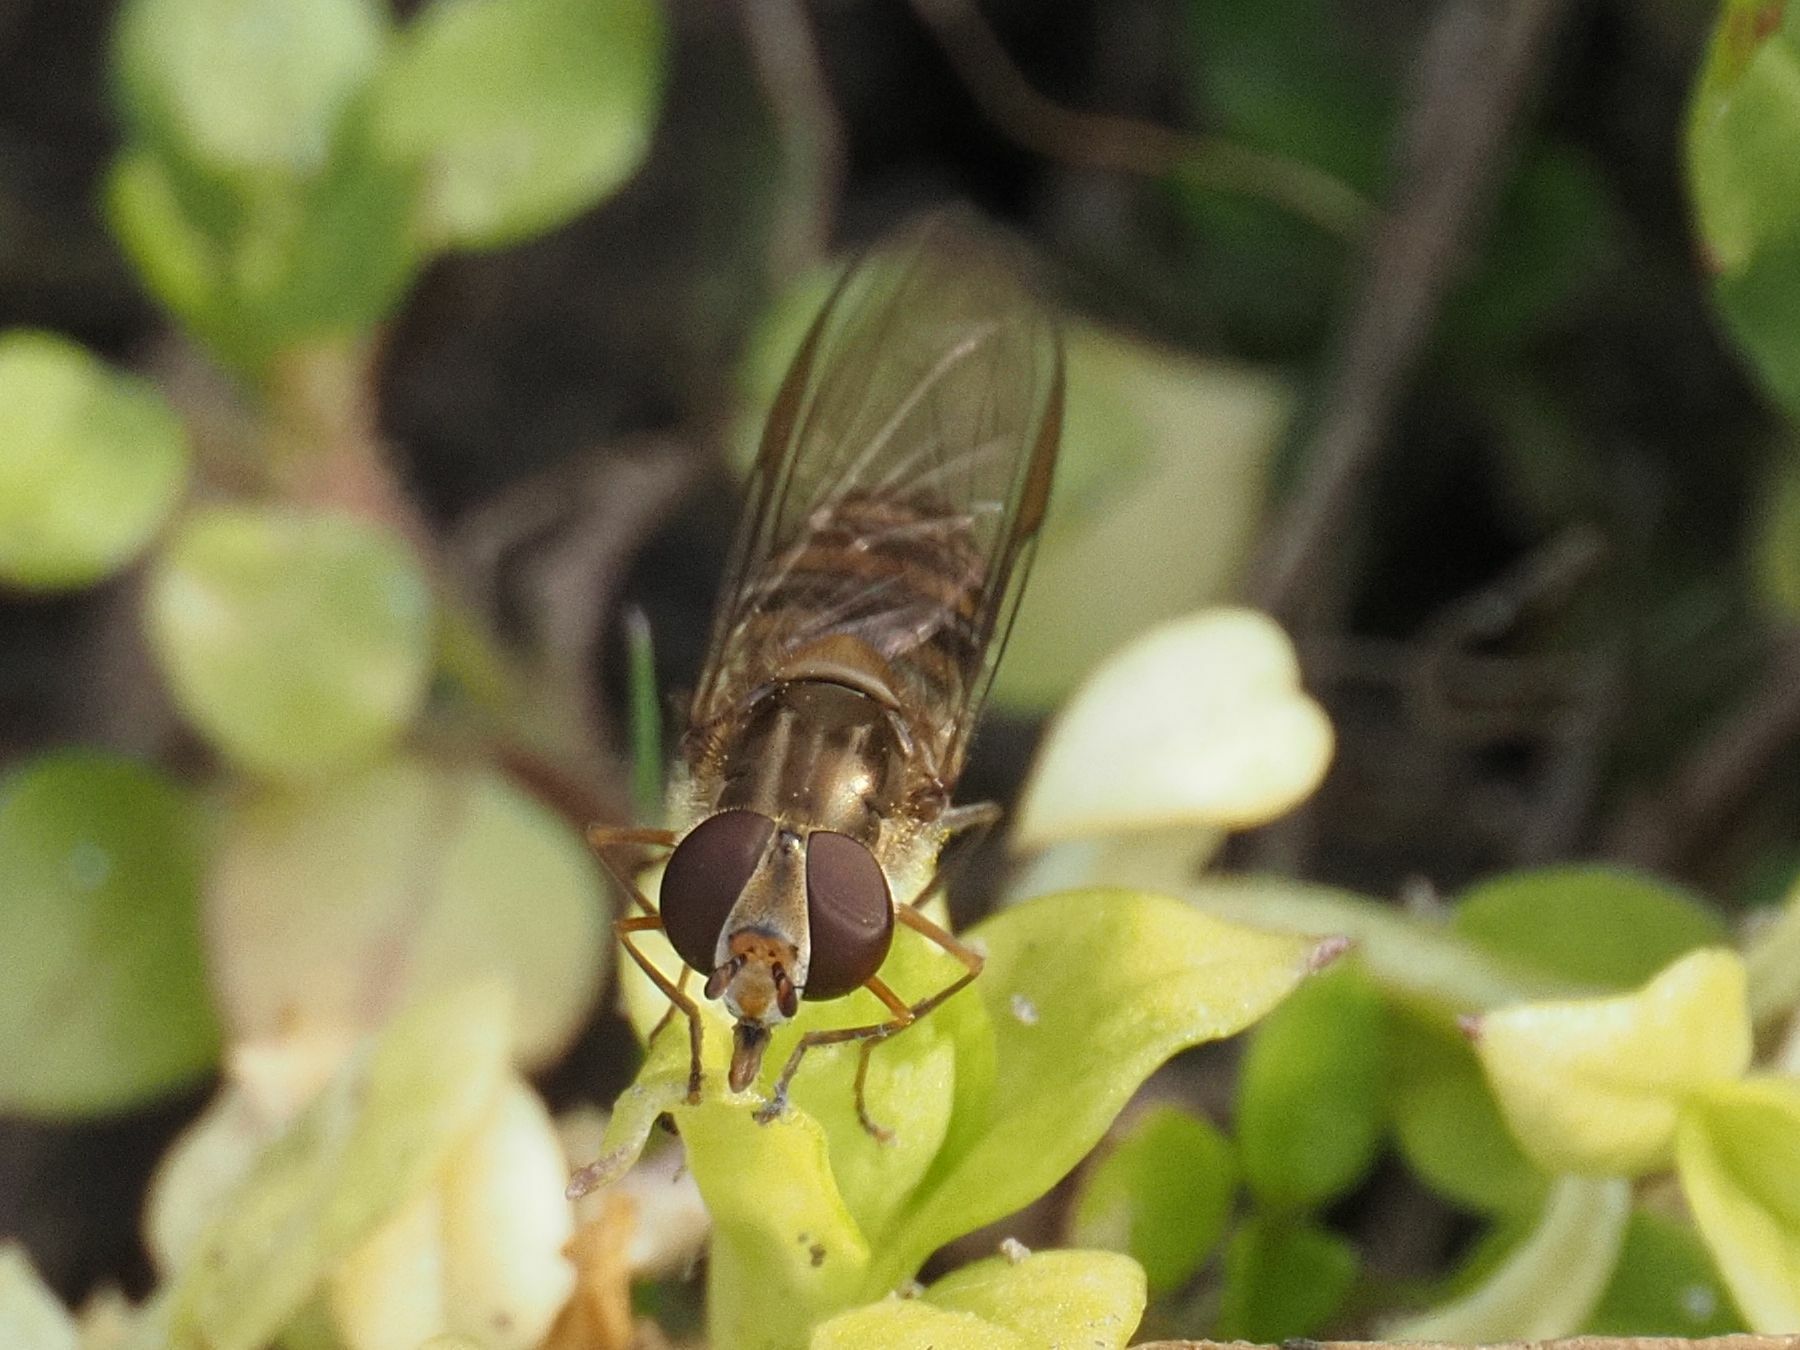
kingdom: Animalia
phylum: Arthropoda
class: Insecta
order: Diptera
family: Syrphidae
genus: Episyrphus
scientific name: Episyrphus balteatus
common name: Marmalade hoverfly
